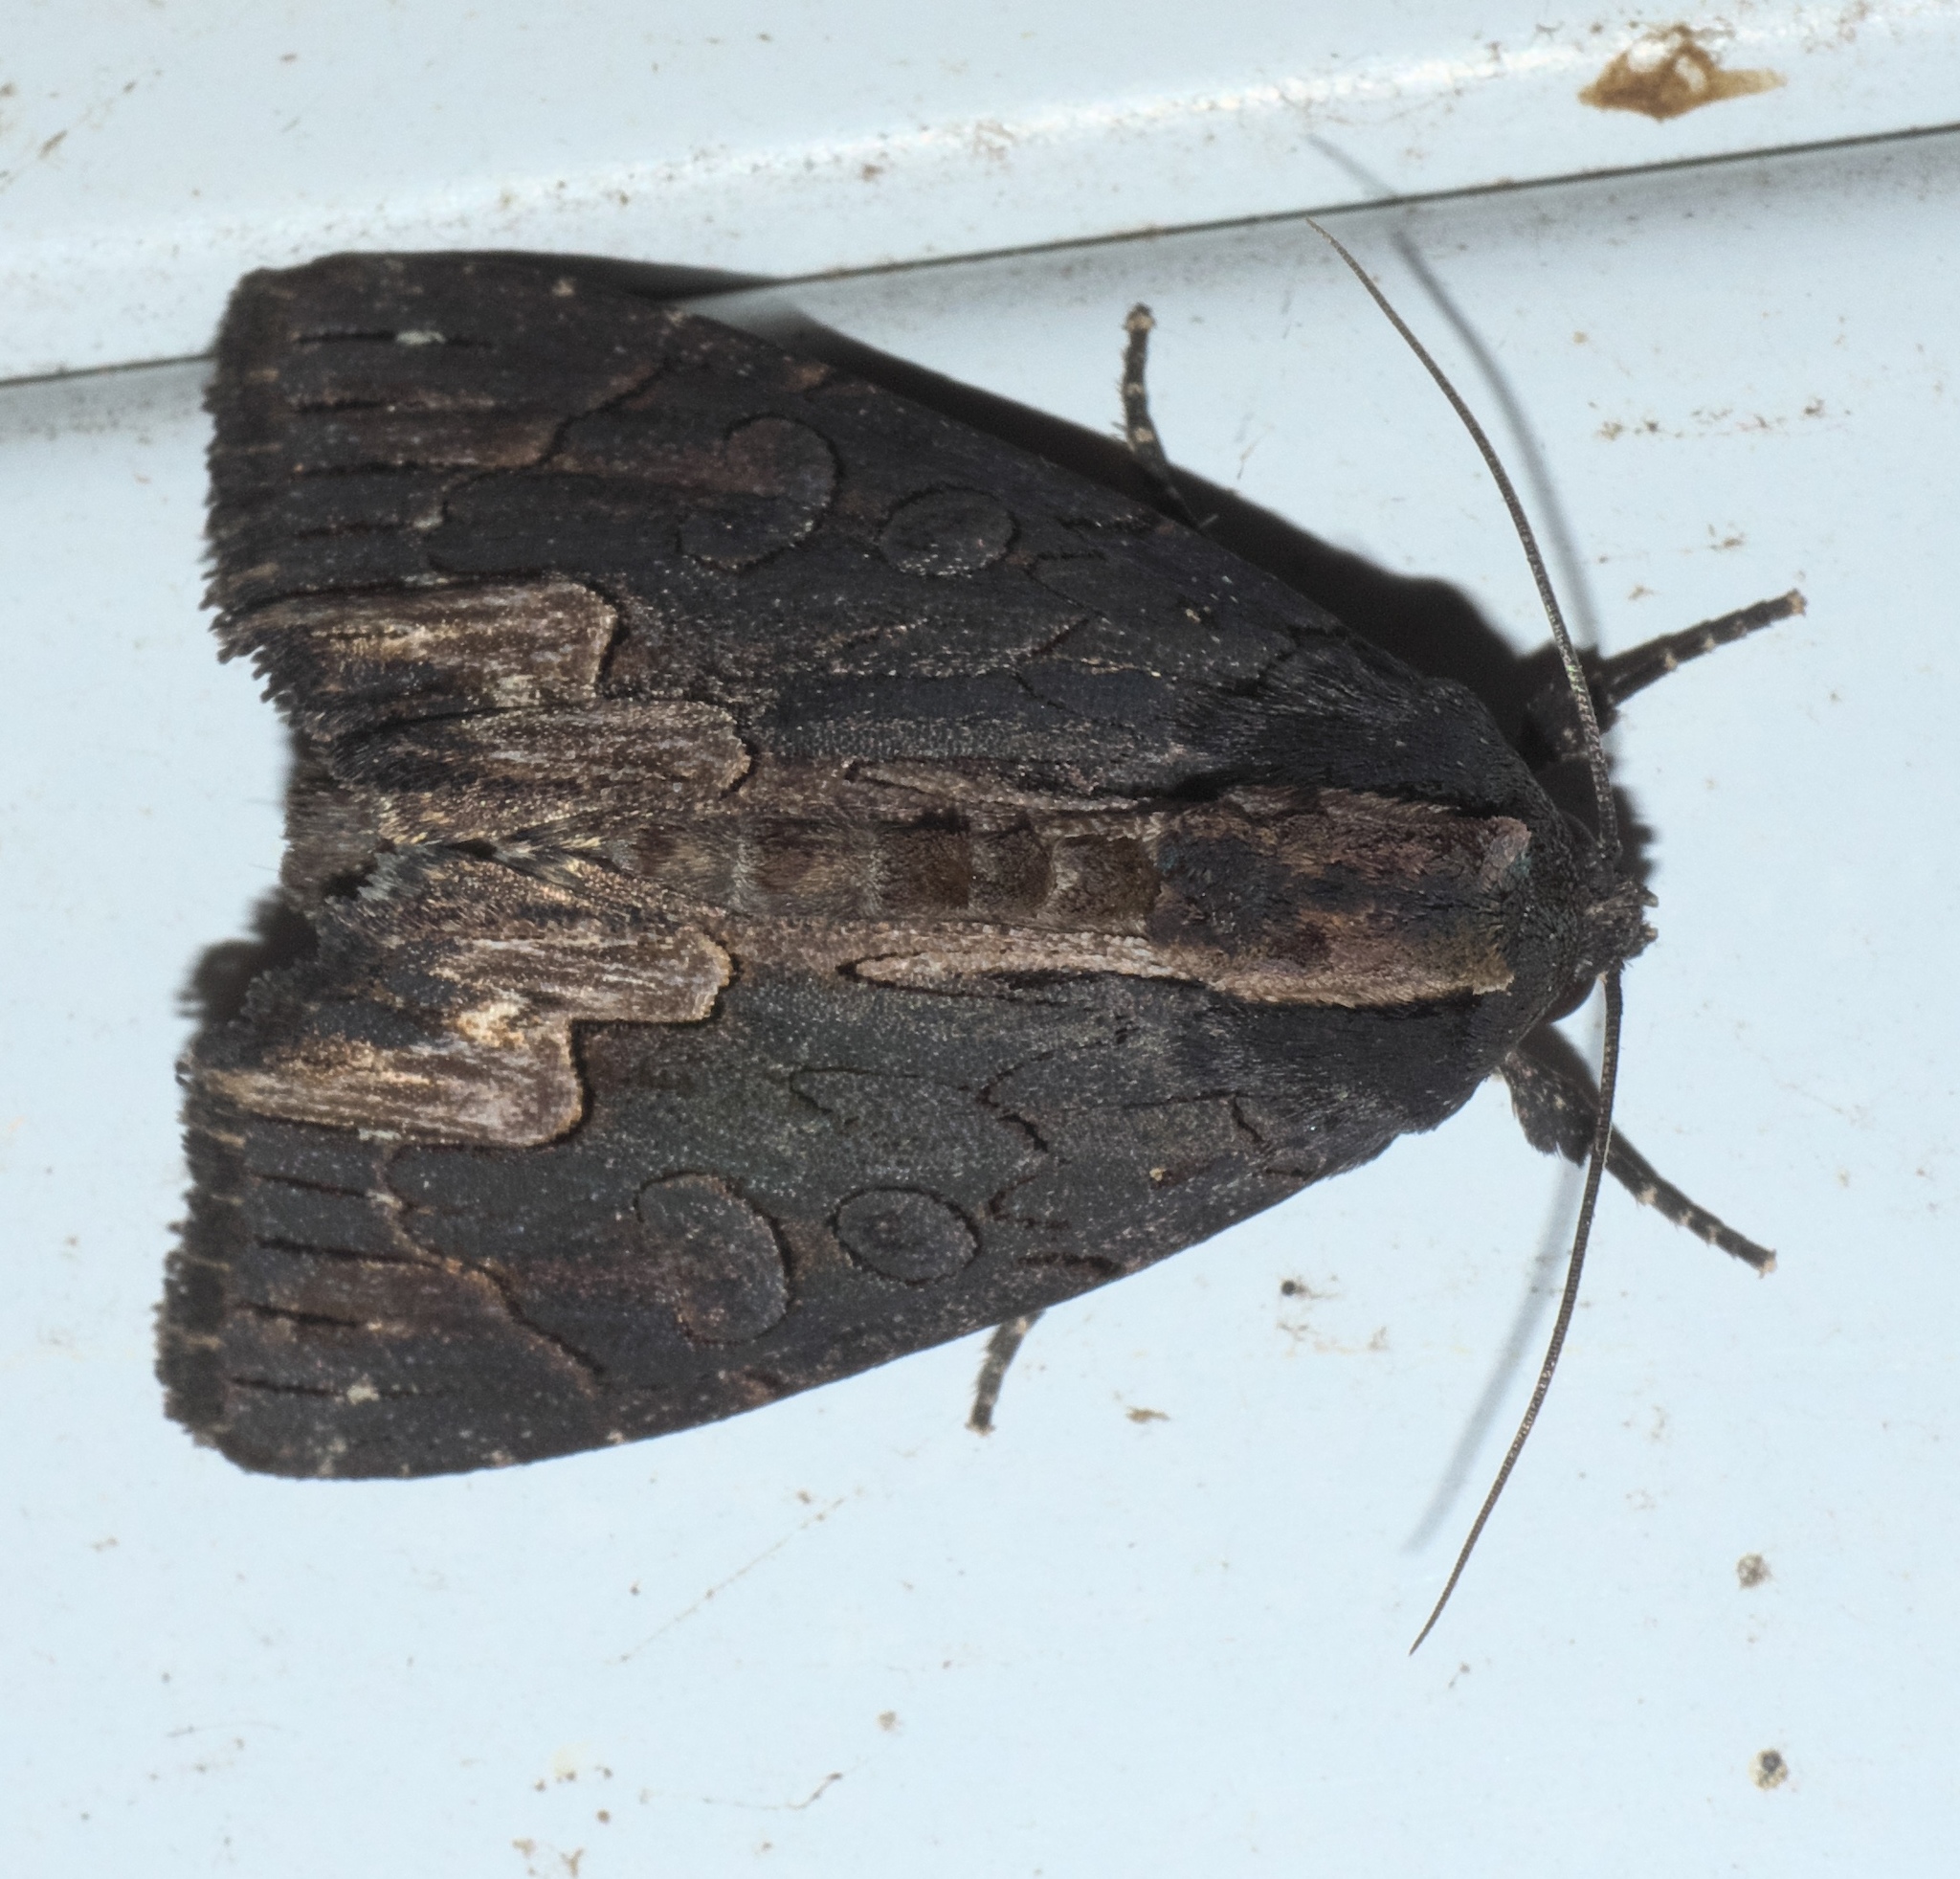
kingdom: Animalia
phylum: Arthropoda
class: Insecta
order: Lepidoptera
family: Noctuidae
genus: Dypterygia
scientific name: Dypterygia rozmani
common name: American bird's-wing
